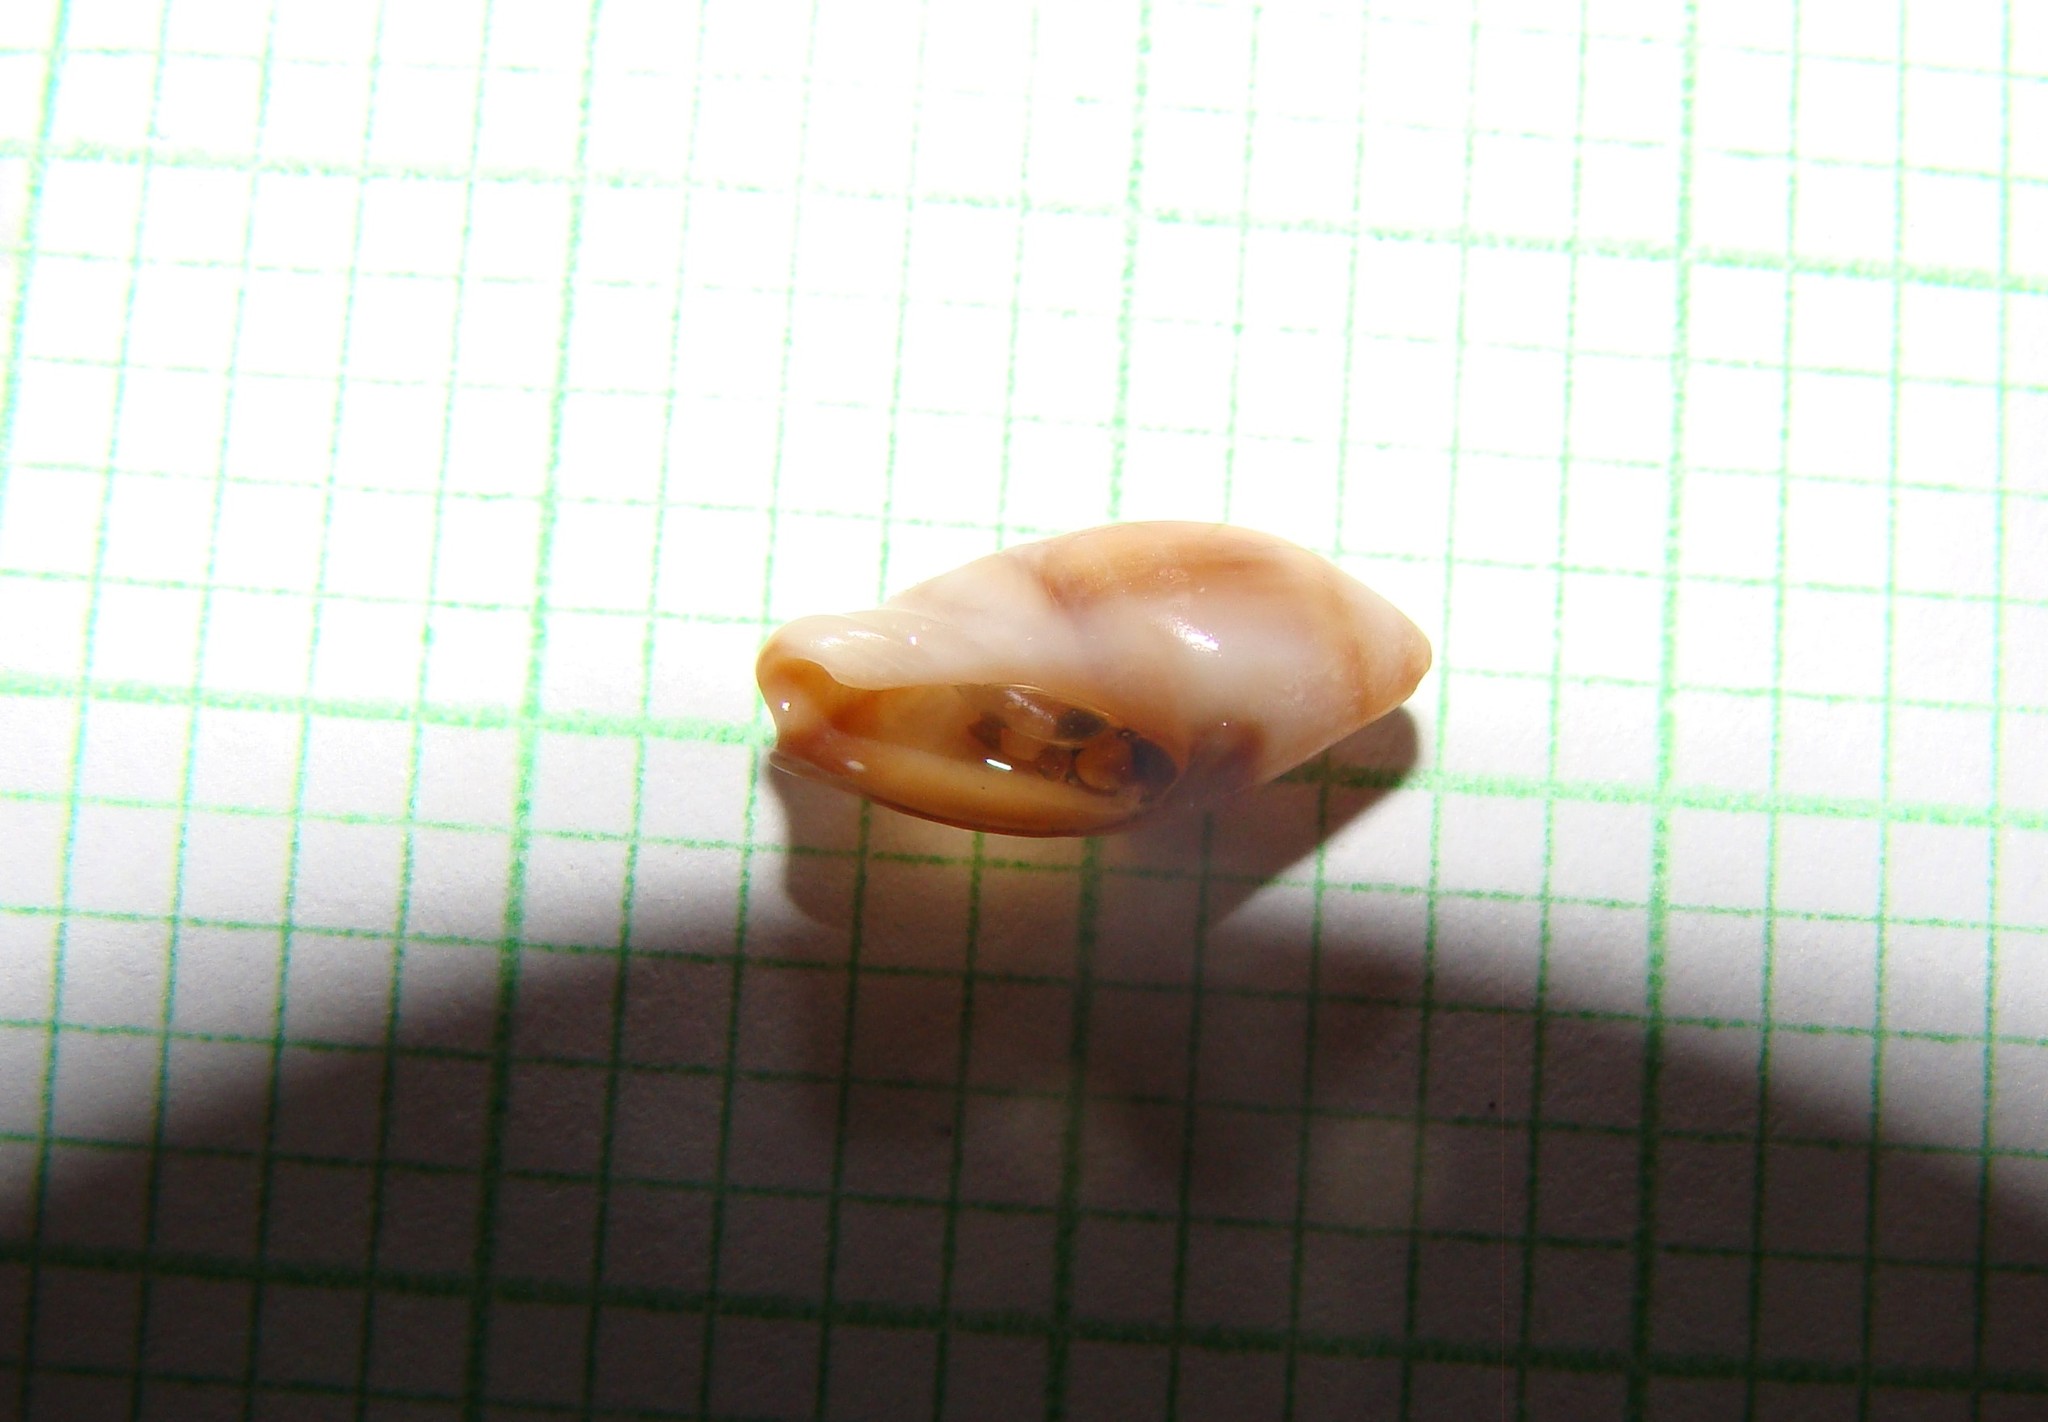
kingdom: Animalia
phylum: Mollusca
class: Gastropoda
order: Neogastropoda
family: Ancillariidae
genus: Amalda
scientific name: Amalda australis
